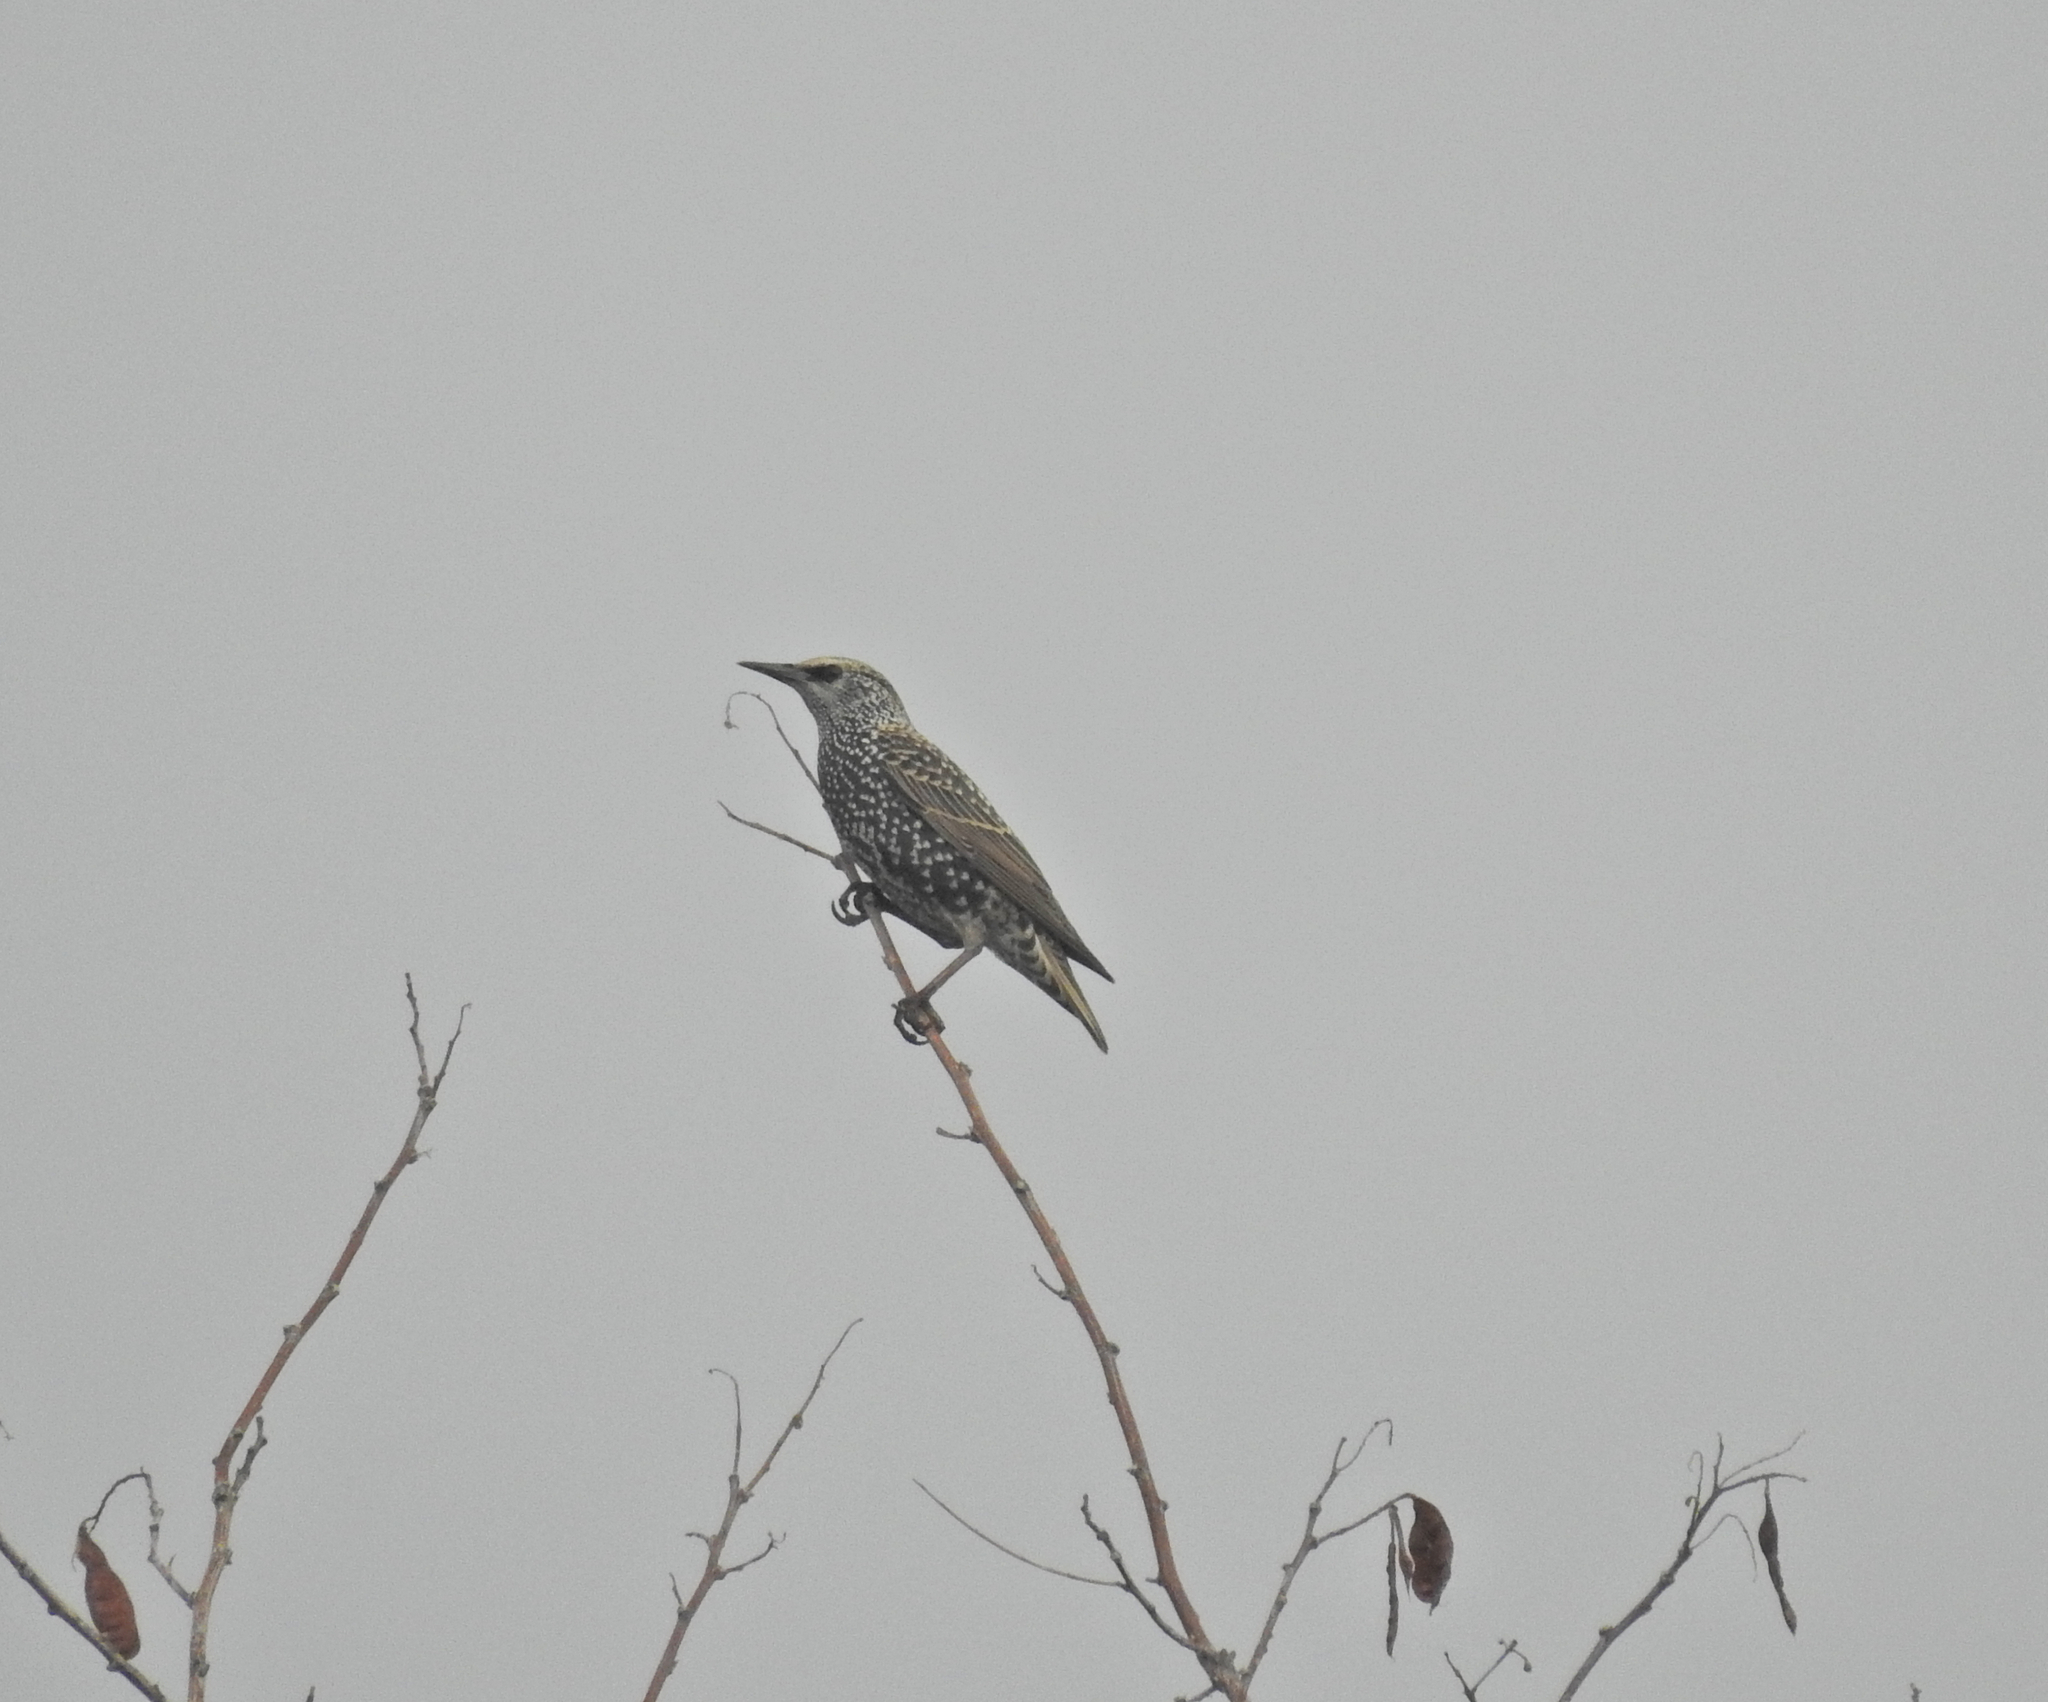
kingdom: Animalia
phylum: Chordata
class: Aves
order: Passeriformes
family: Sturnidae
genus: Sturnus
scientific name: Sturnus vulgaris
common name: Common starling
